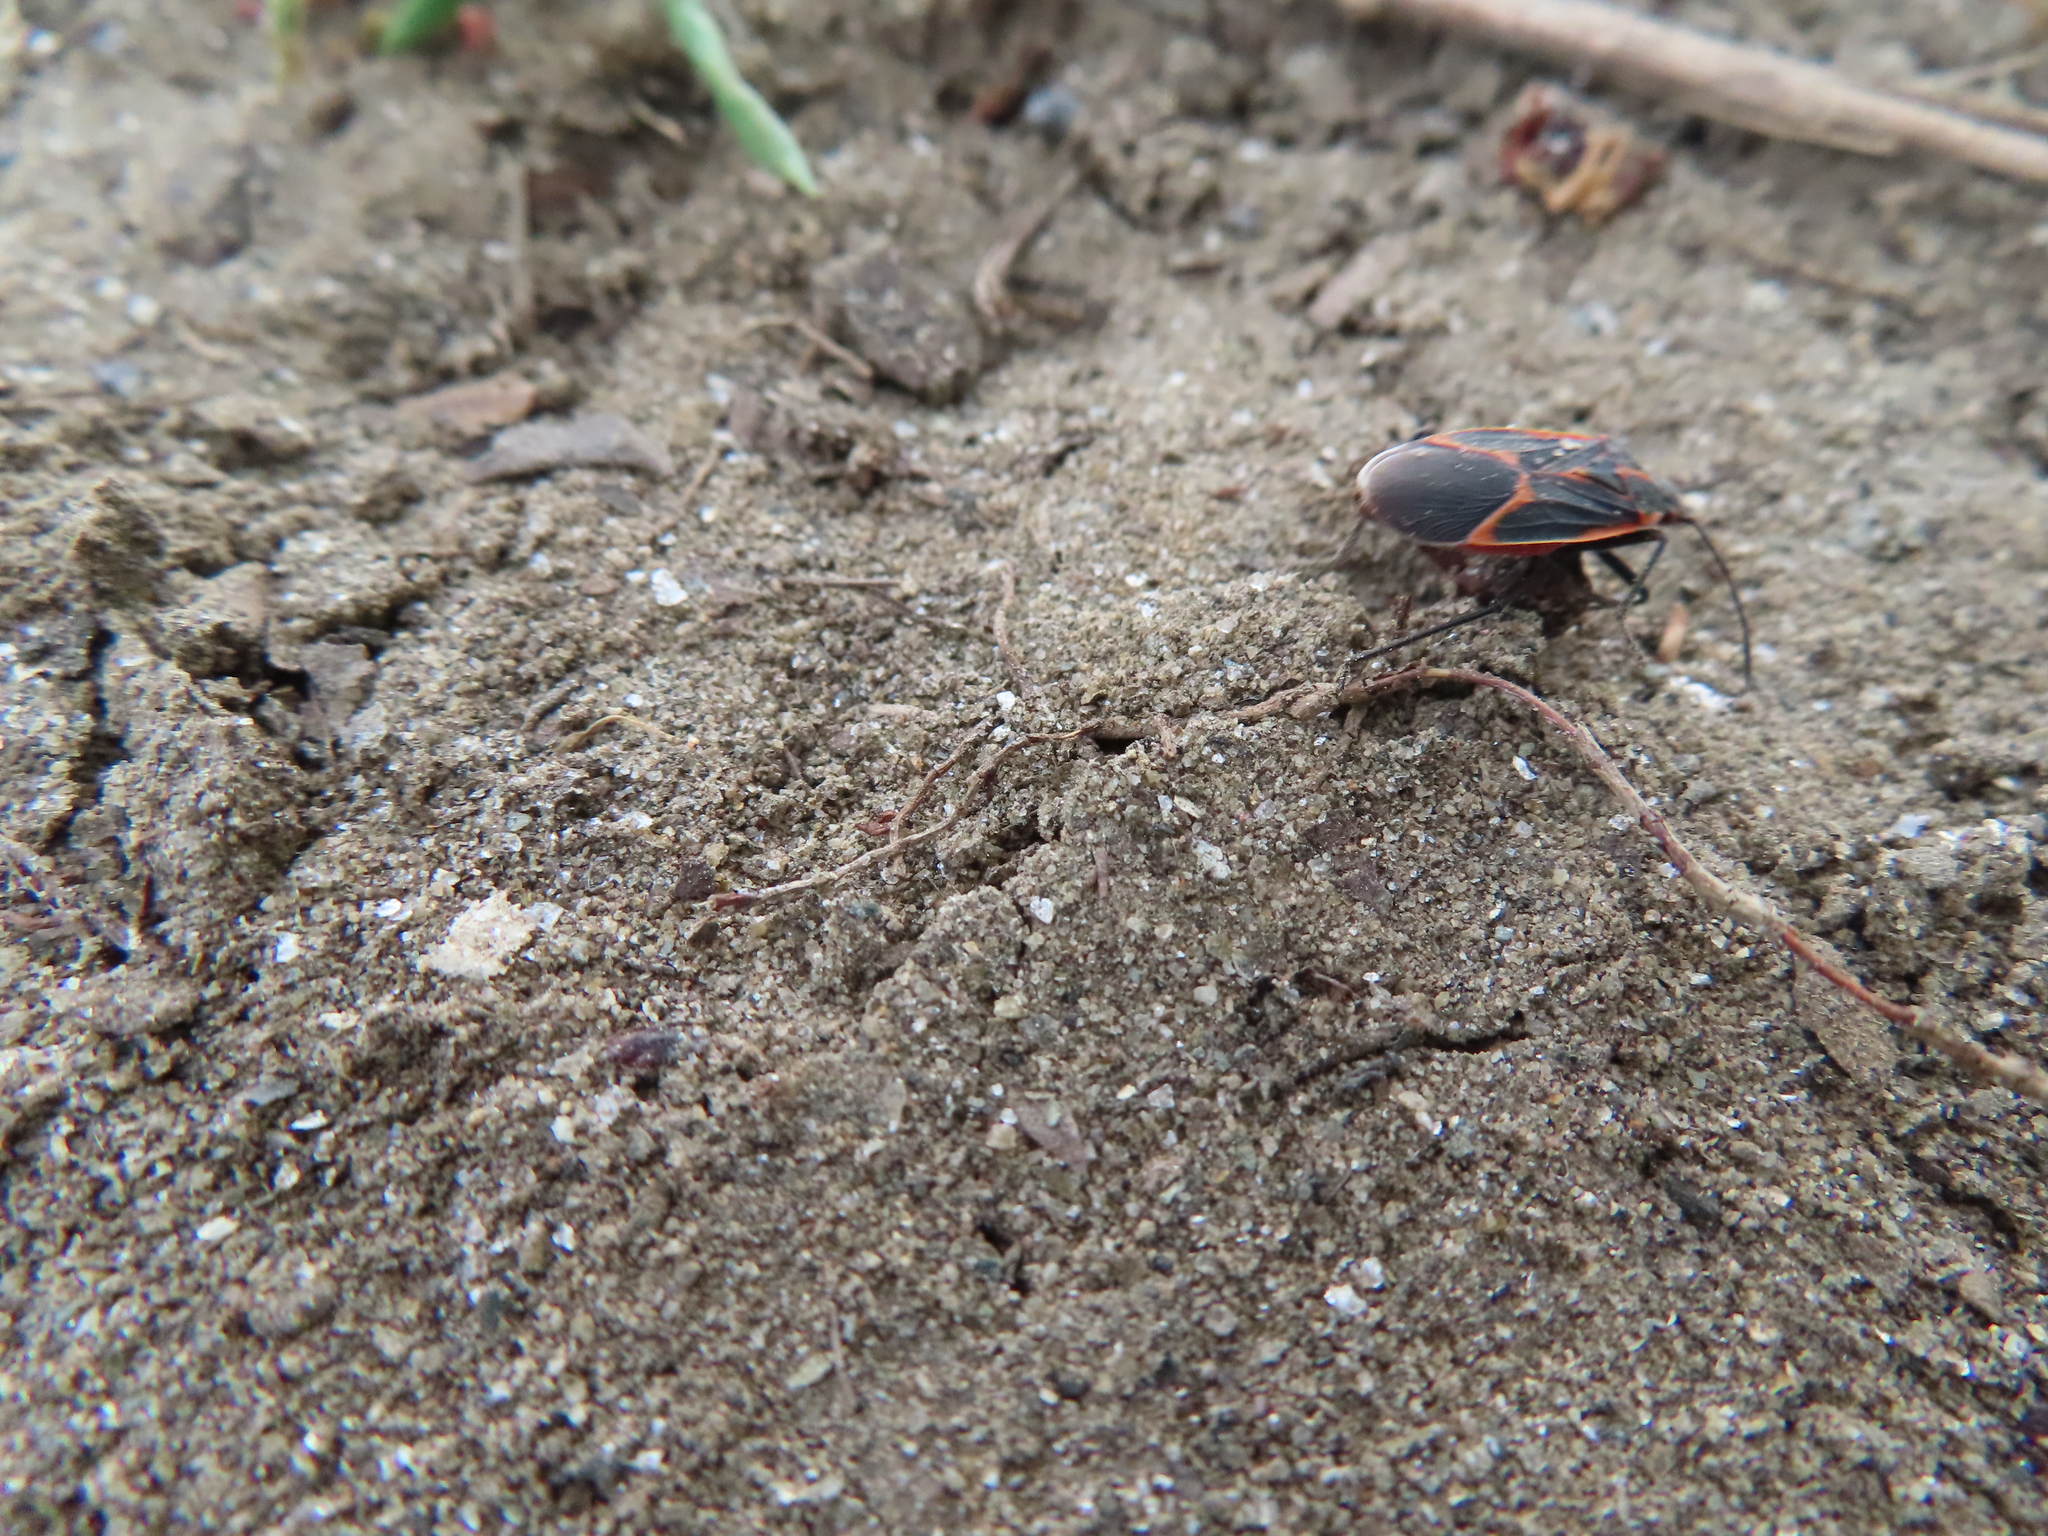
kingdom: Animalia
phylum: Arthropoda
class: Insecta
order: Hemiptera
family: Rhopalidae
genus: Boisea
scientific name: Boisea trivittata
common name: Boxelder bug
